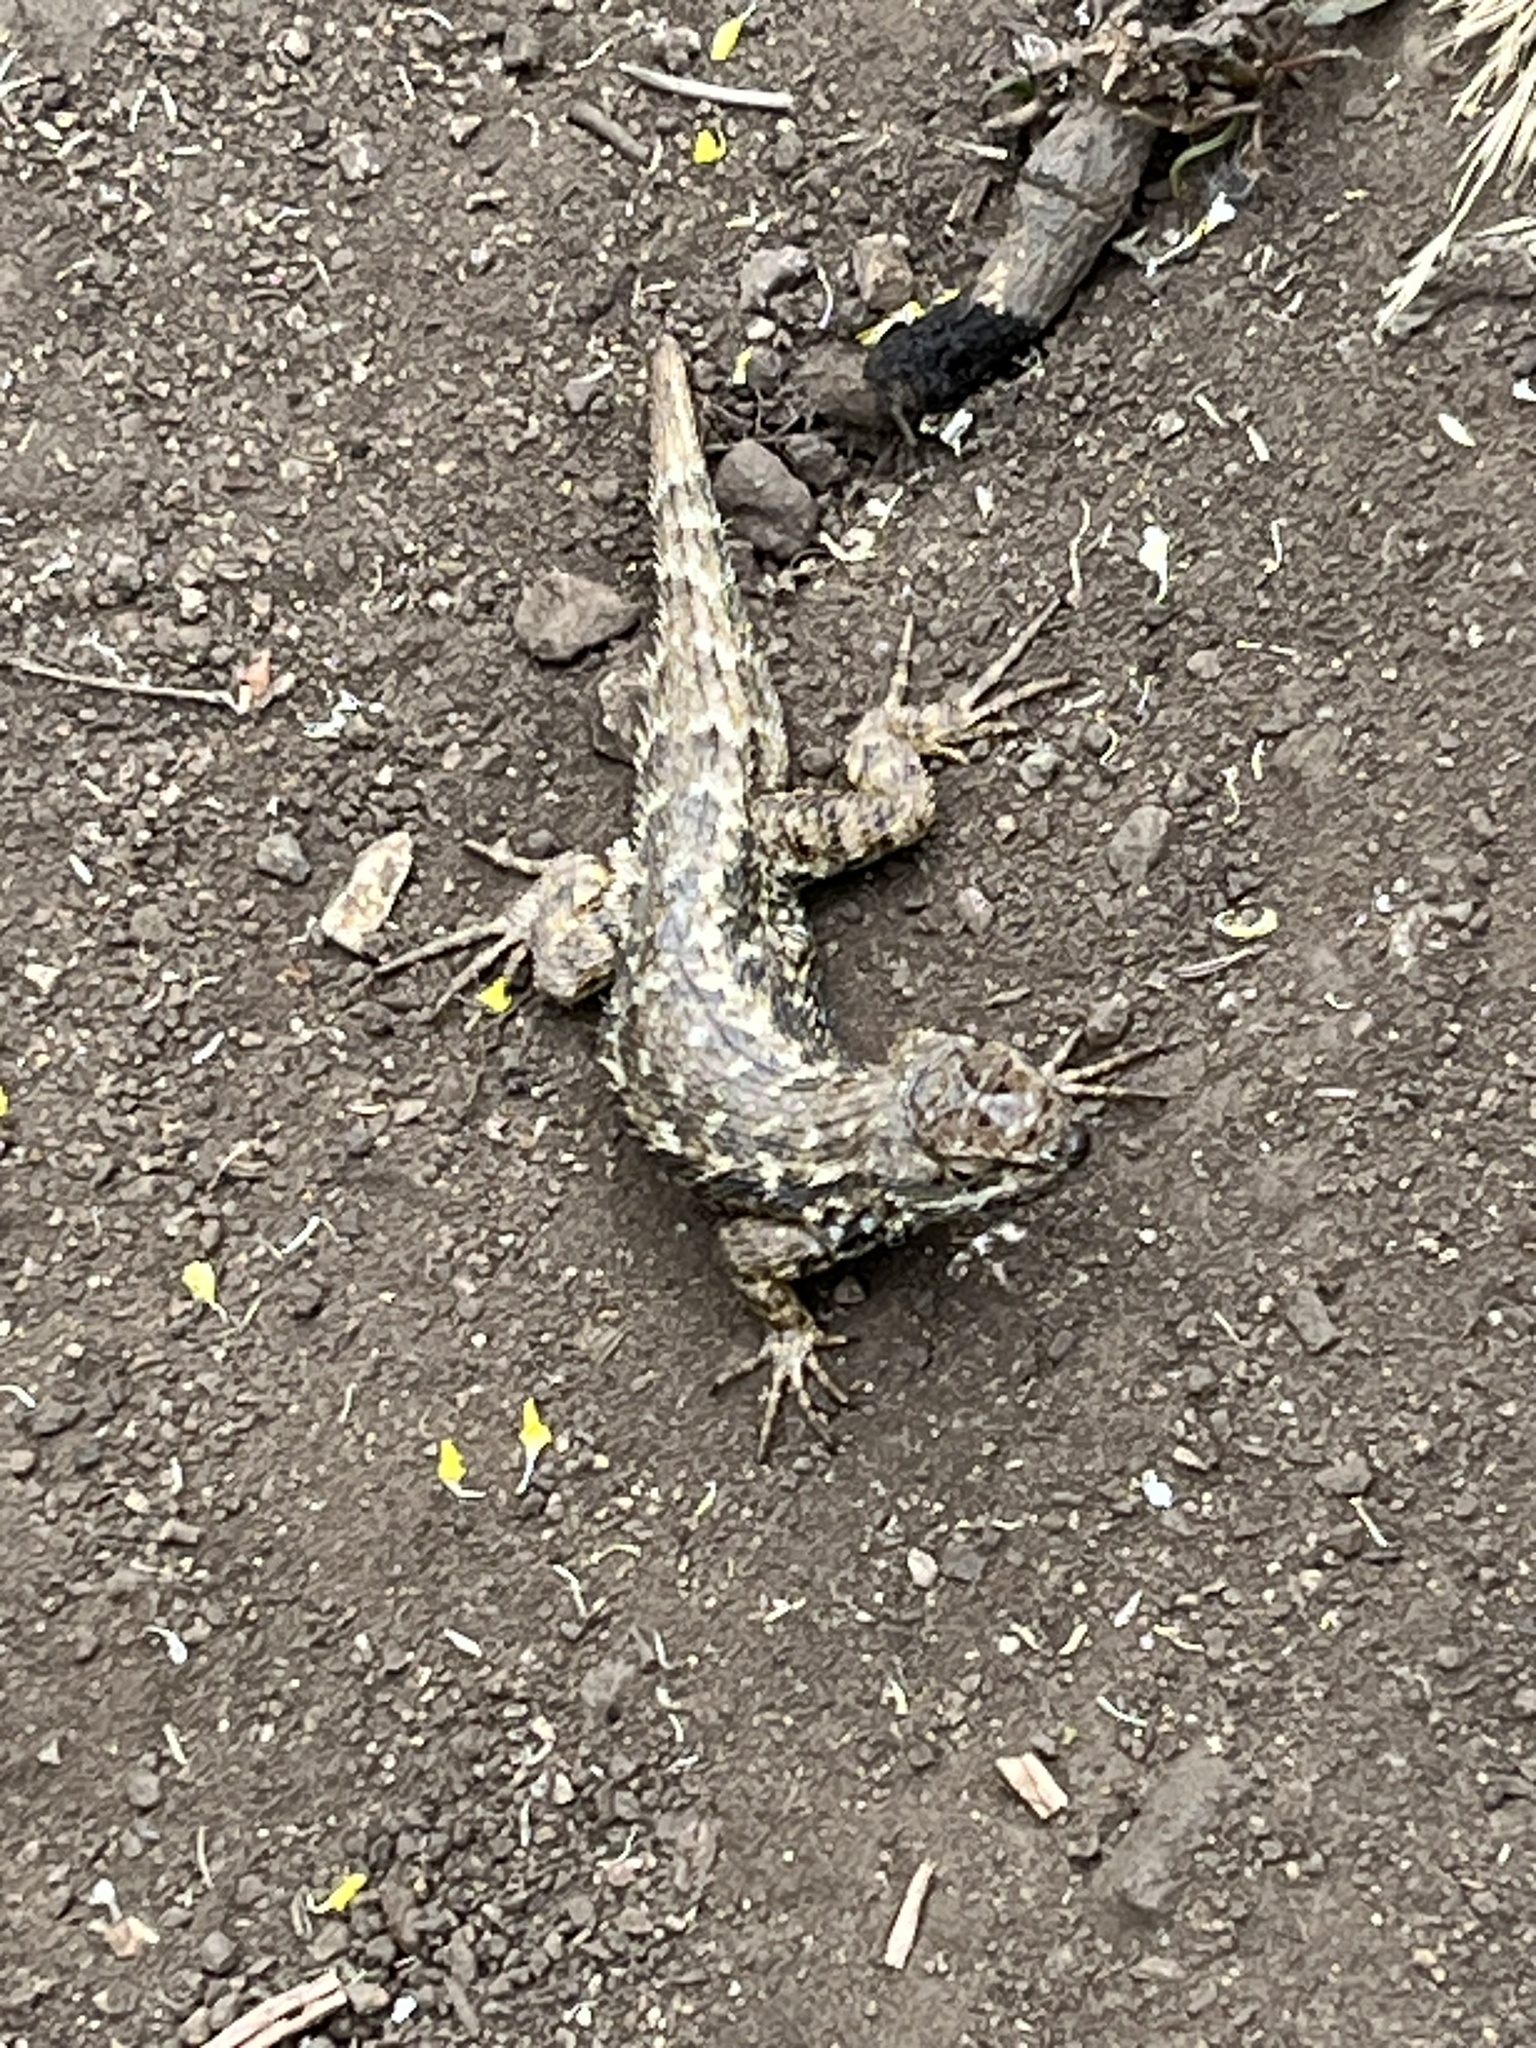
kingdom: Animalia
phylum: Chordata
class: Squamata
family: Phrynosomatidae
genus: Sceloporus
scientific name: Sceloporus occidentalis
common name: Western fence lizard
